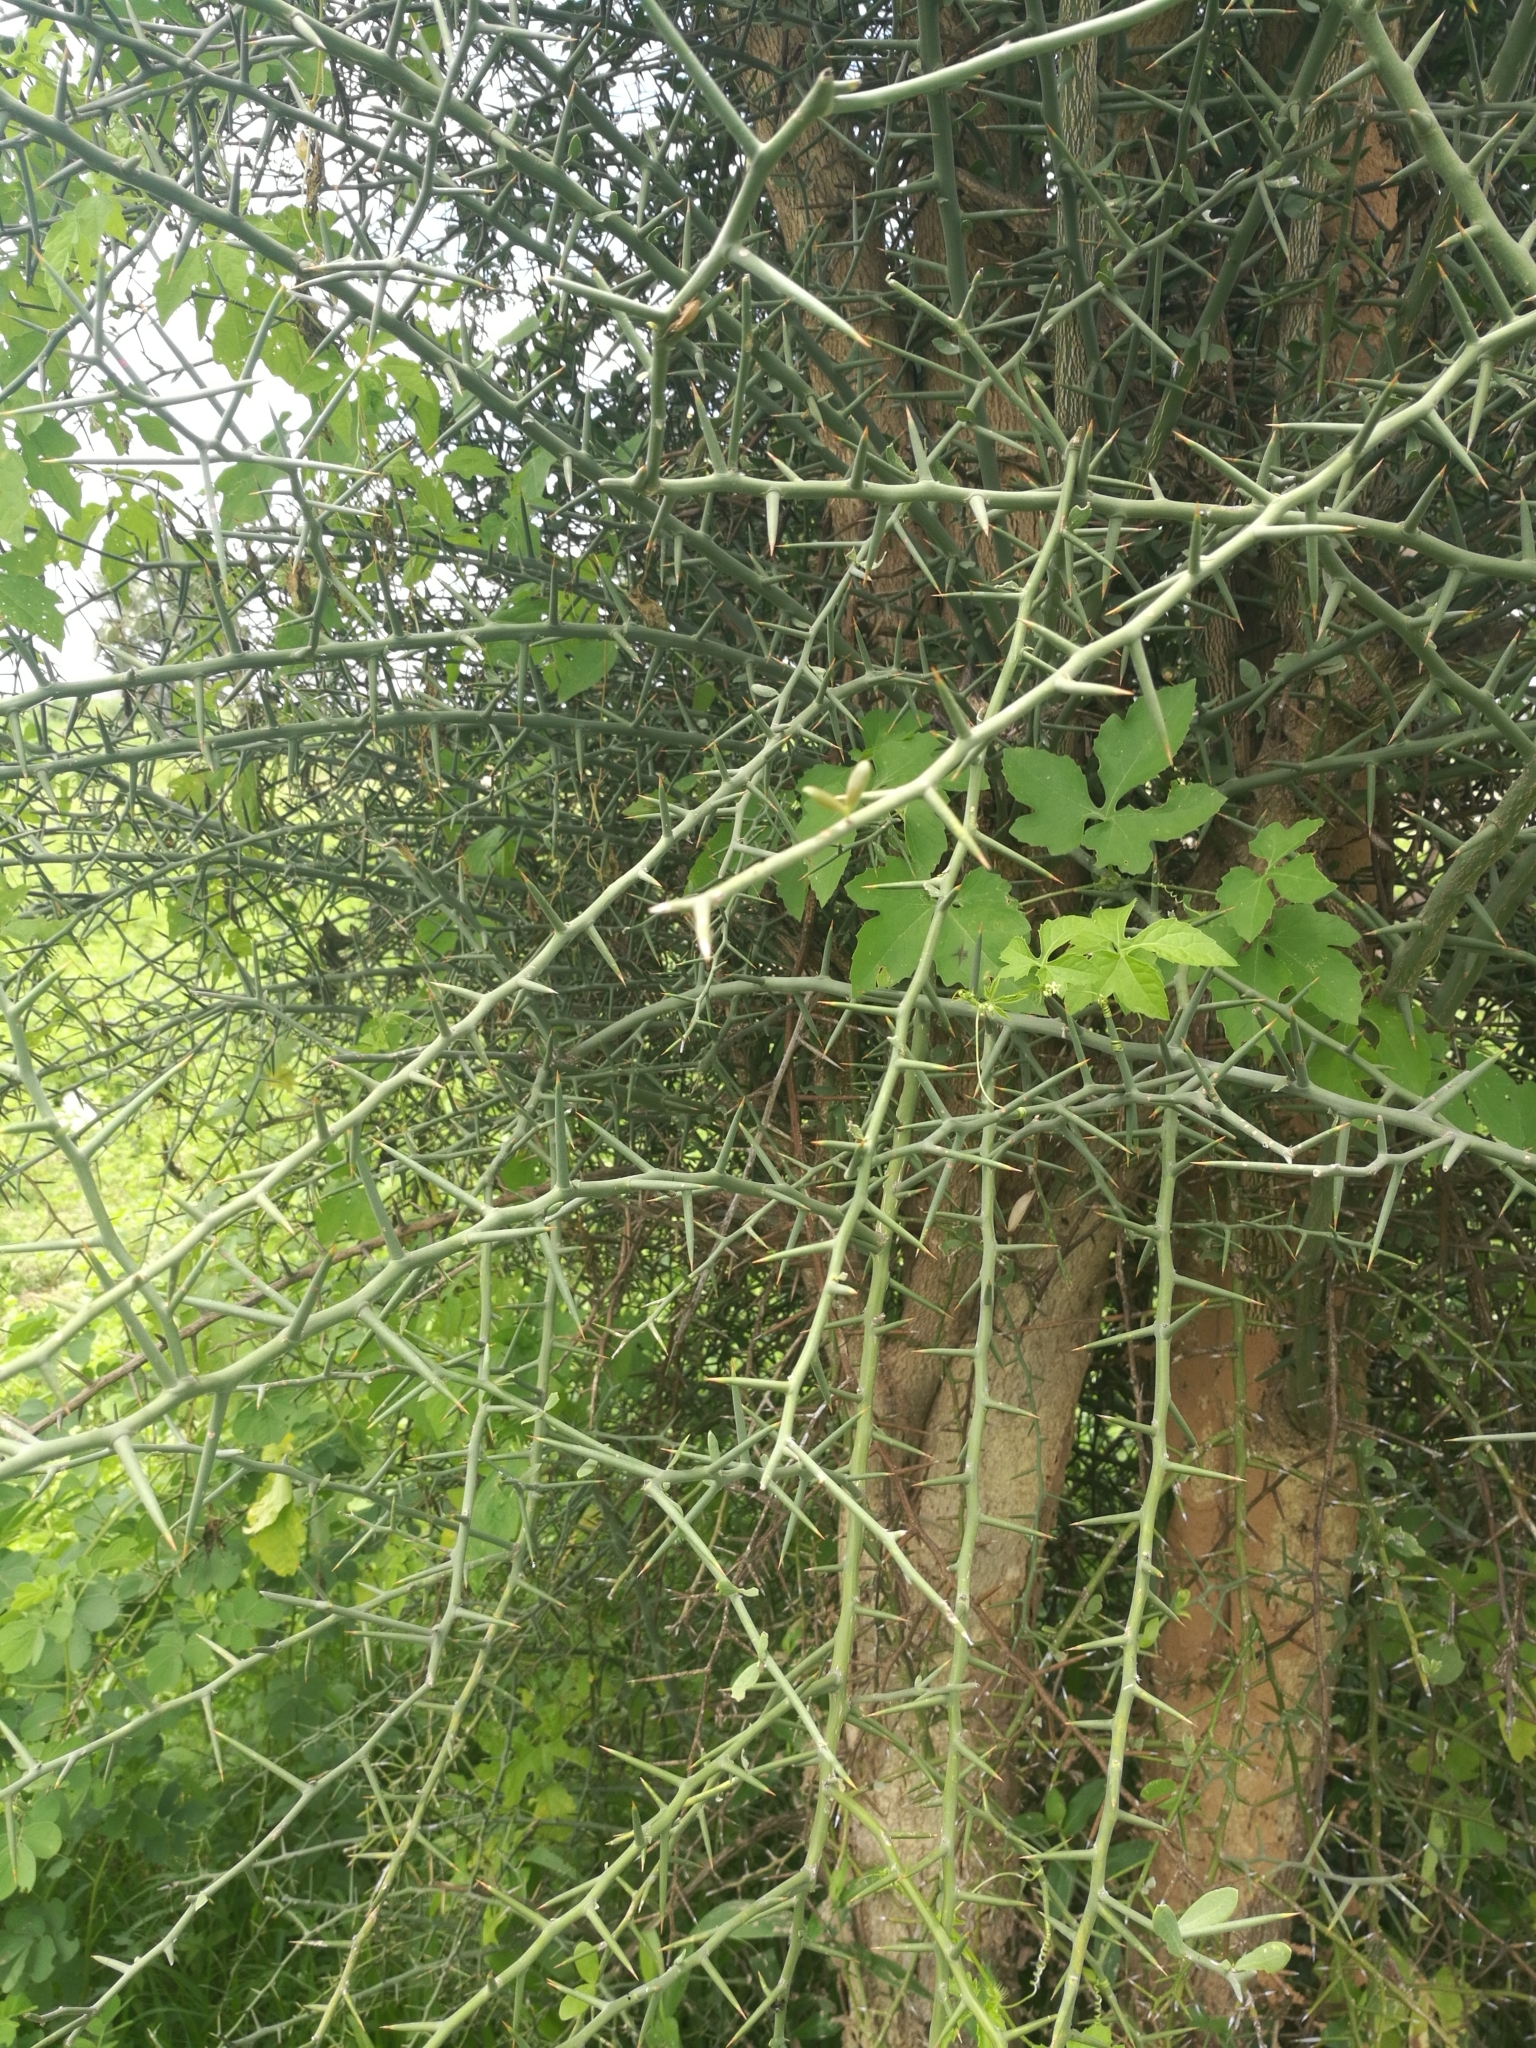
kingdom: Plantae
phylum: Tracheophyta
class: Magnoliopsida
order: Zygophyllales
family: Zygophyllaceae
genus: Balanites
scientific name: Balanites aegyptiaca
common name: Balanites
